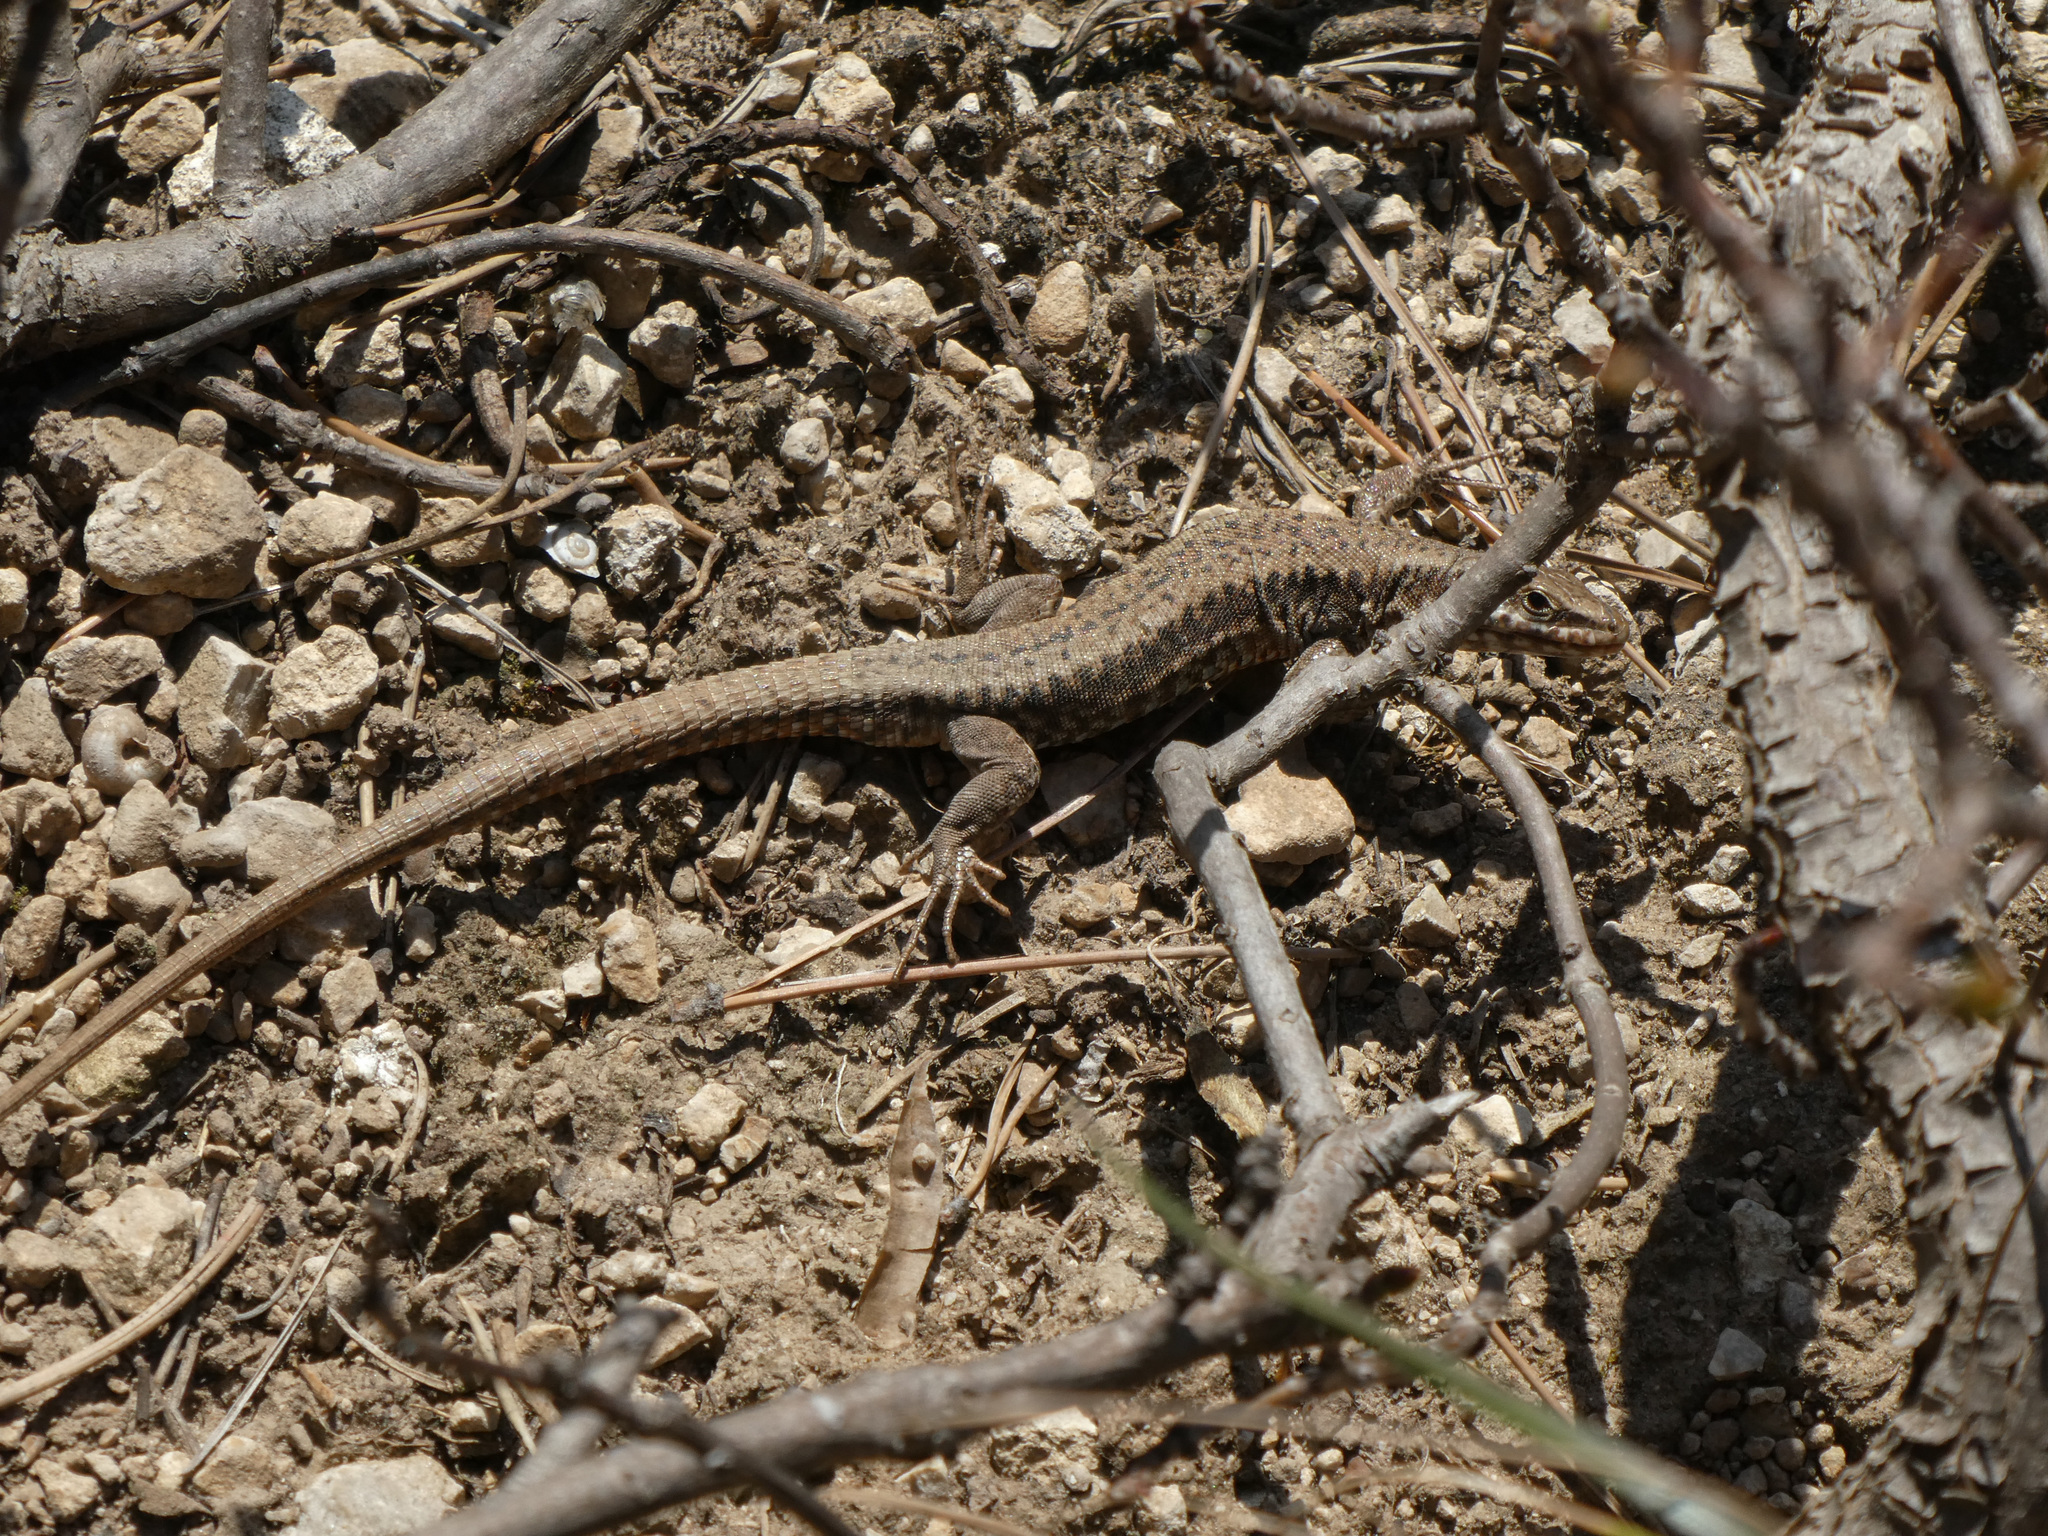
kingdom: Animalia
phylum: Chordata
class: Squamata
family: Lacertidae
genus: Podarcis
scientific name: Podarcis muralis
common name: Common wall lizard
